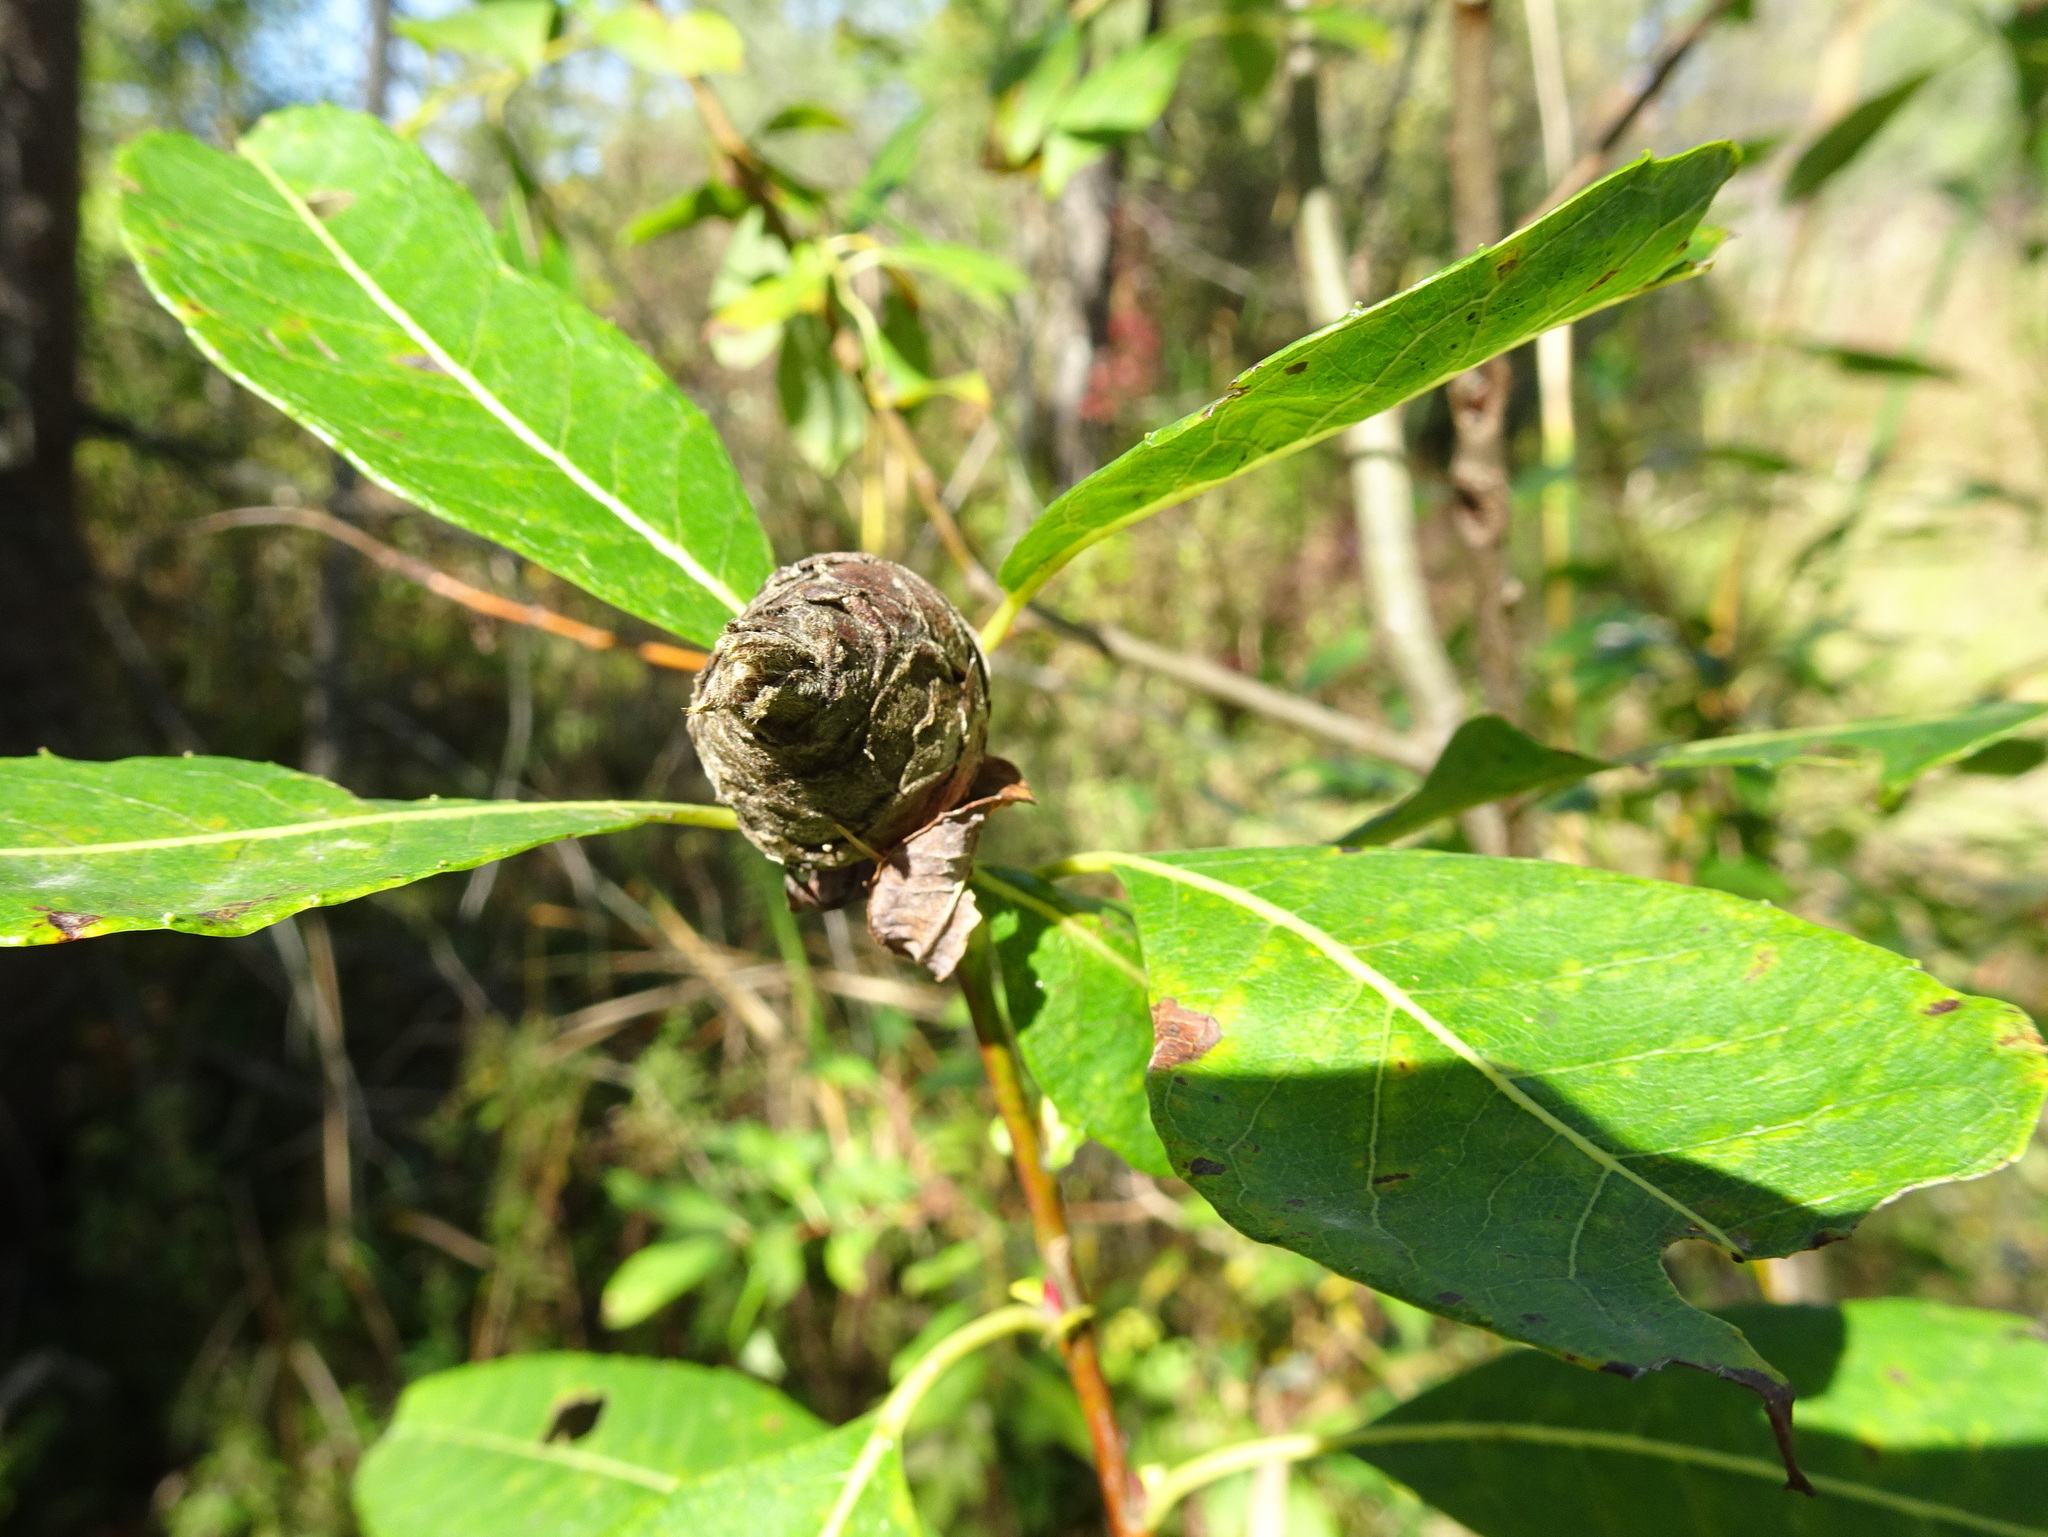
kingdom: Animalia
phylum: Arthropoda
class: Insecta
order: Diptera
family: Cecidomyiidae
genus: Rabdophaga
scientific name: Rabdophaga strobiloides
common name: Willow pinecone gall midge
